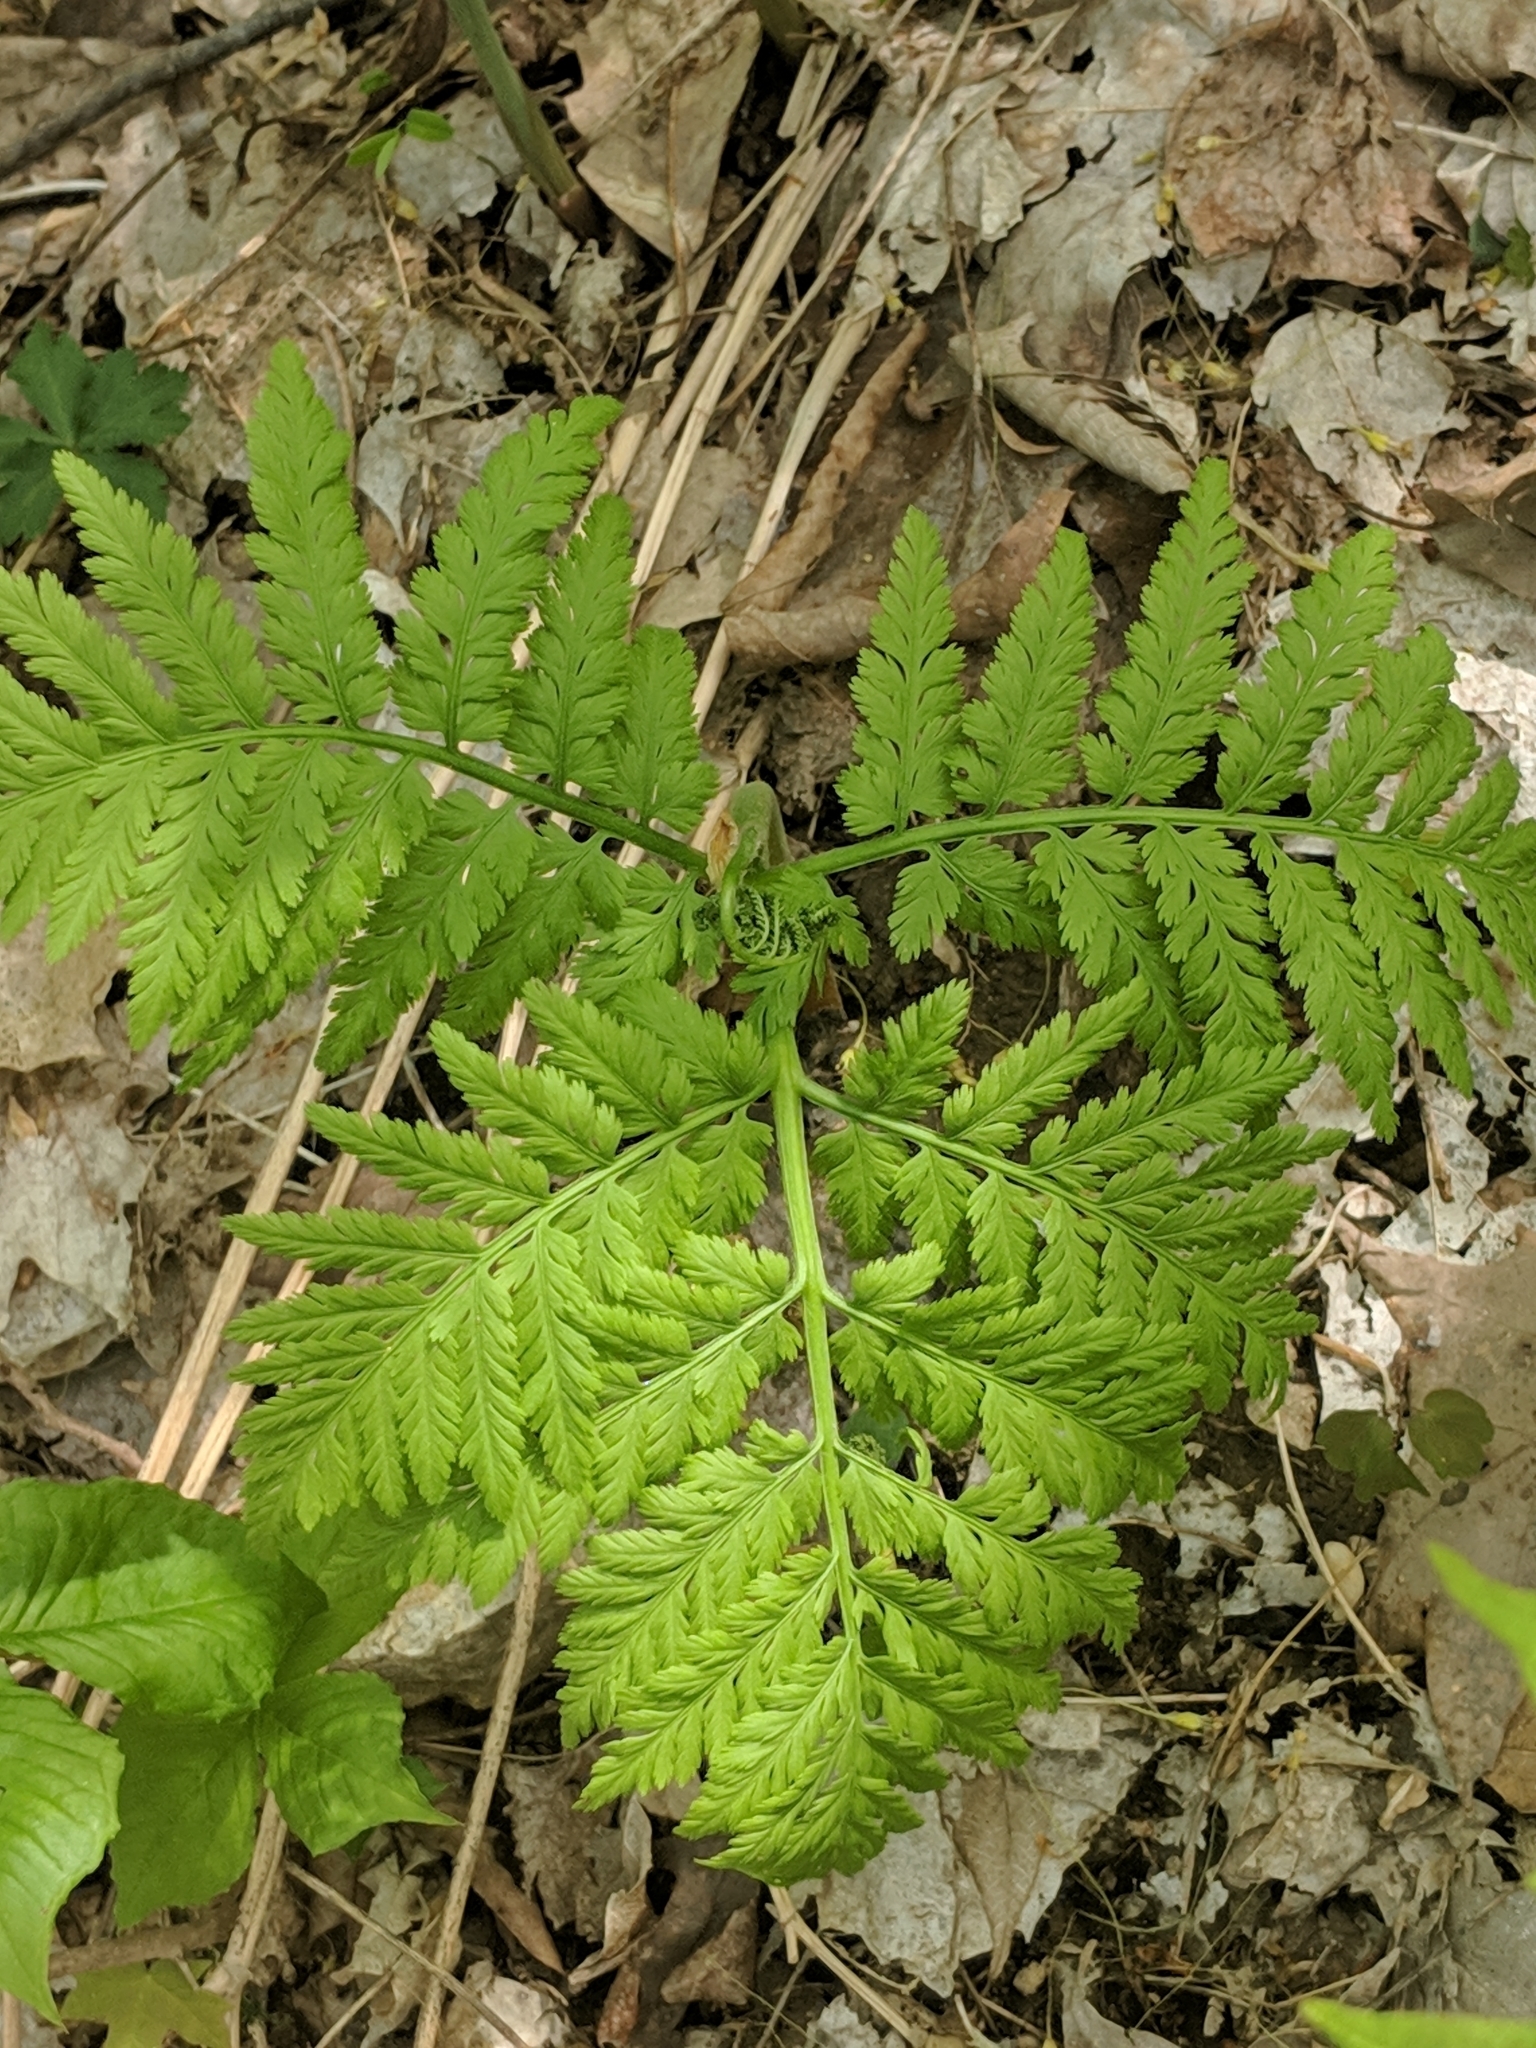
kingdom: Plantae
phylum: Tracheophyta
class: Polypodiopsida
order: Ophioglossales
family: Ophioglossaceae
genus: Botrypus
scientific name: Botrypus virginianus
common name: Common grapefern
